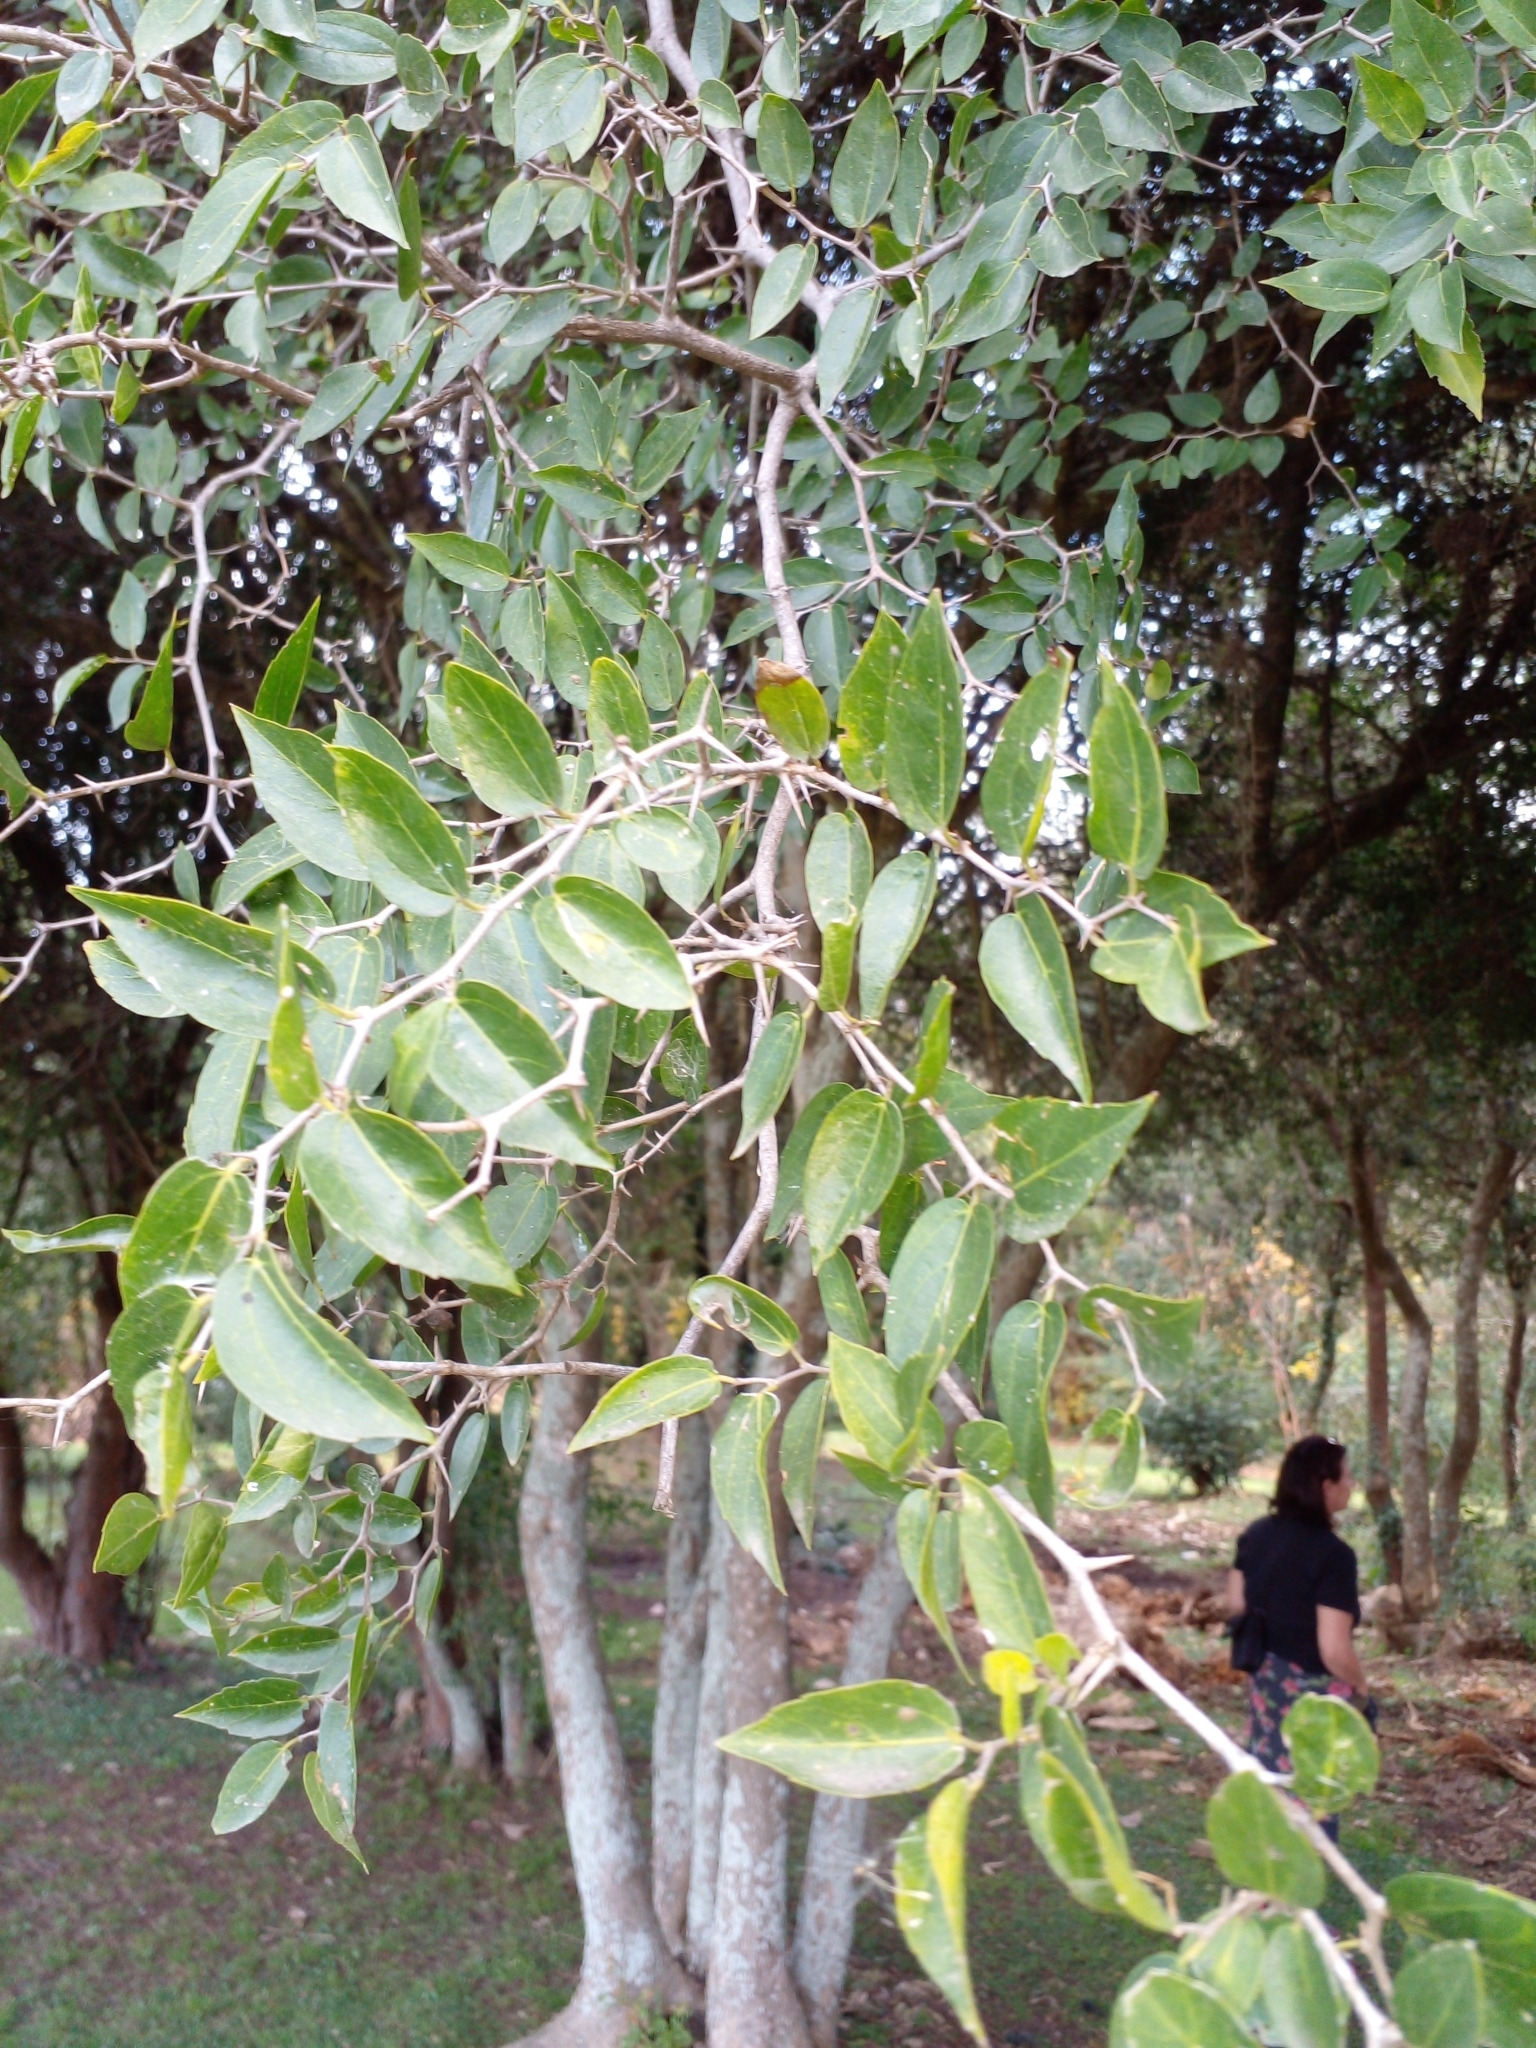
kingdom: Plantae
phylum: Tracheophyta
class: Magnoliopsida
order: Rosales
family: Cannabaceae
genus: Celtis
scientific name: Celtis tala
